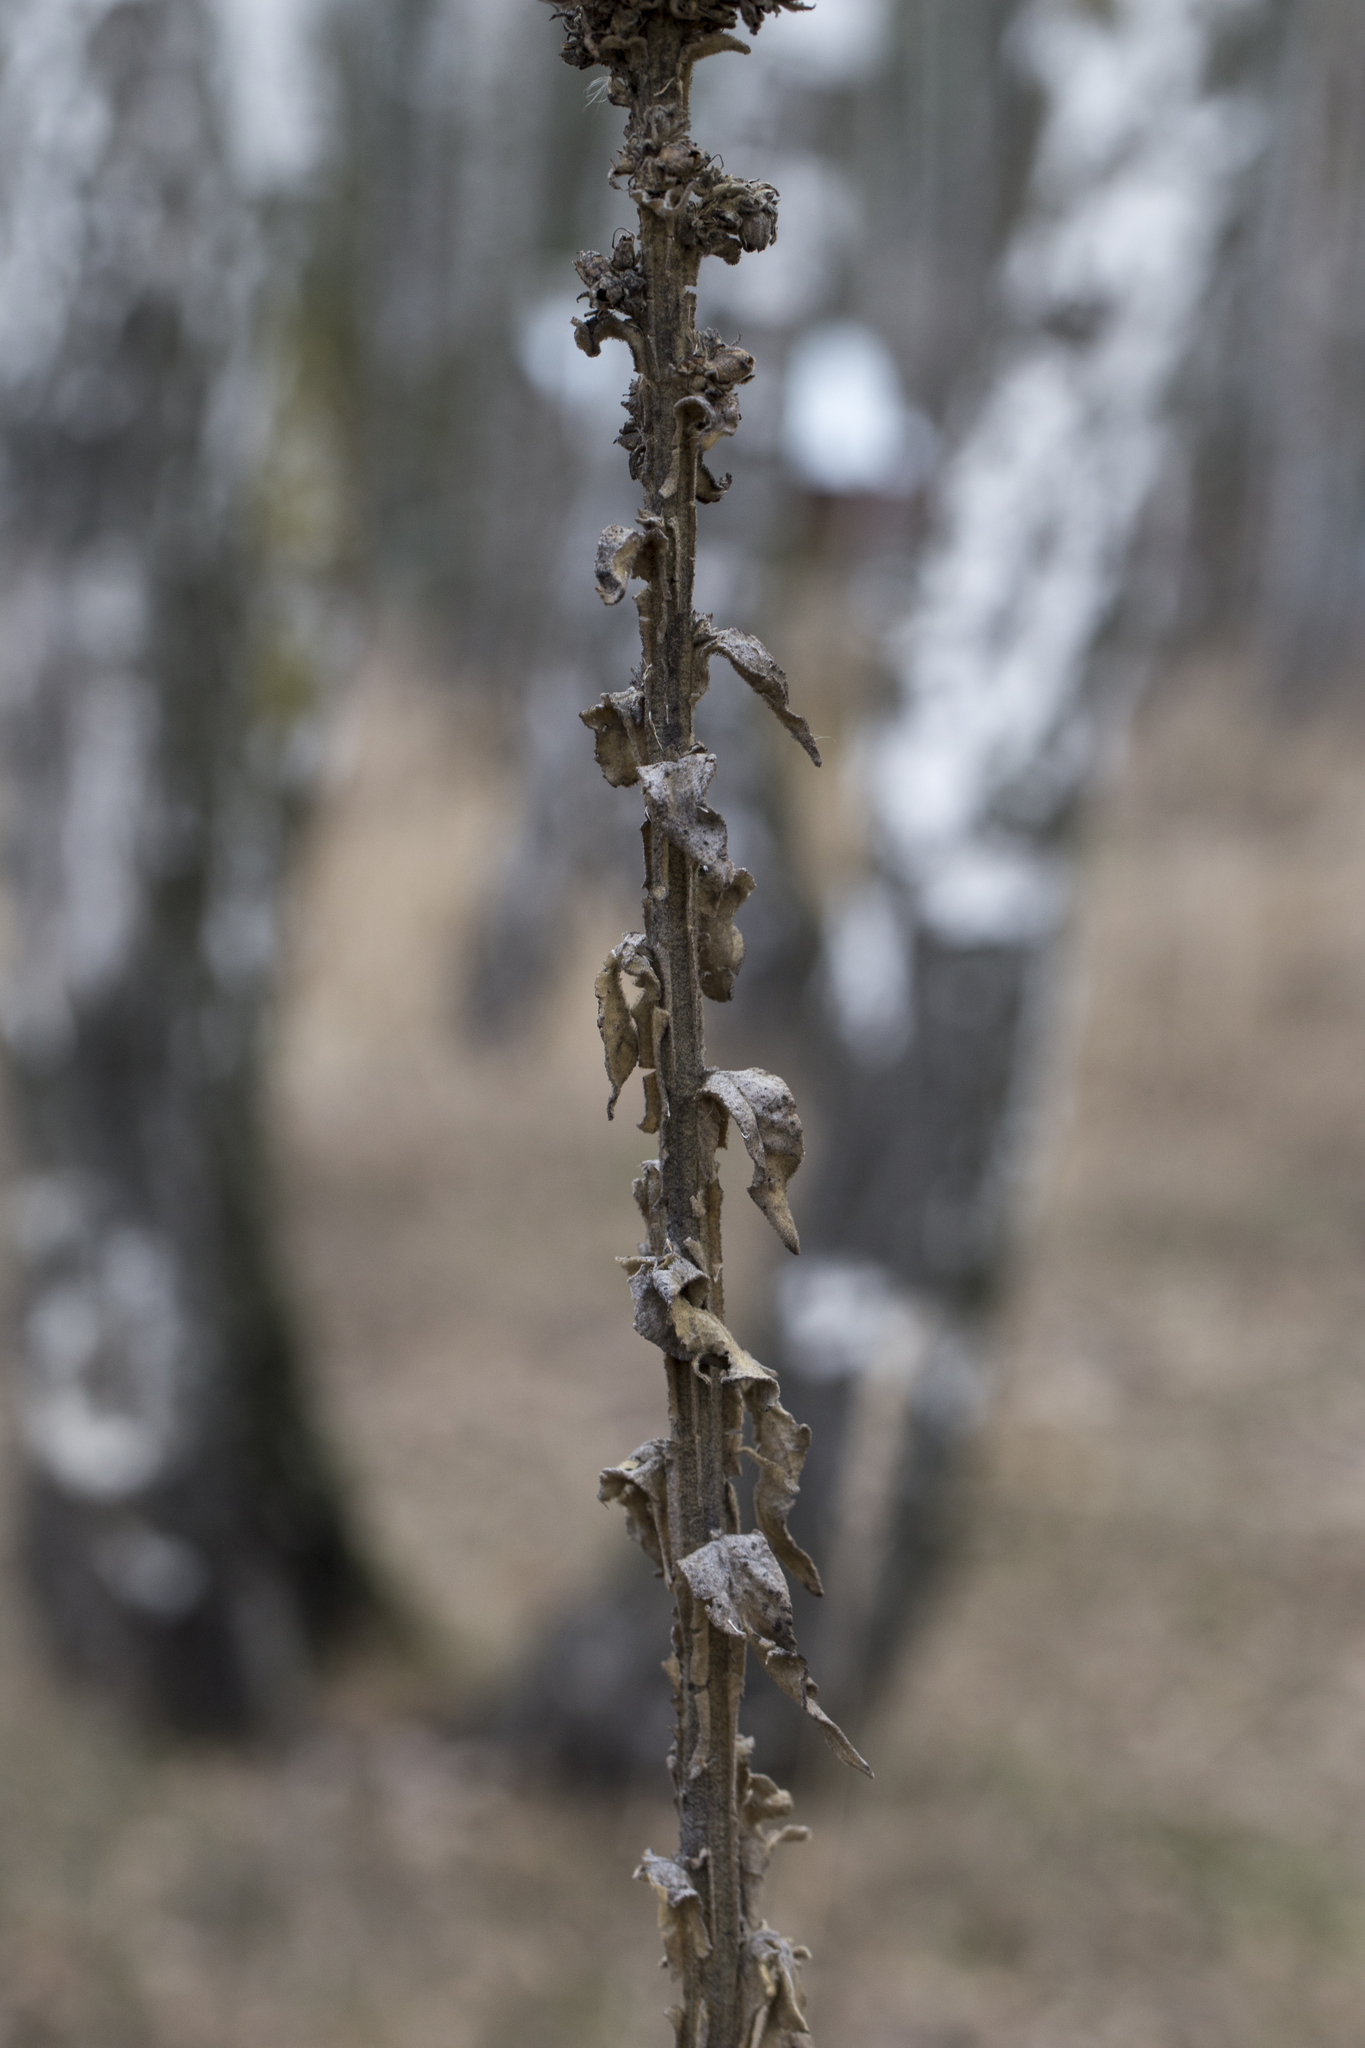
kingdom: Plantae
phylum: Tracheophyta
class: Magnoliopsida
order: Lamiales
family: Scrophulariaceae
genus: Verbascum
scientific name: Verbascum thapsus
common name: Common mullein
